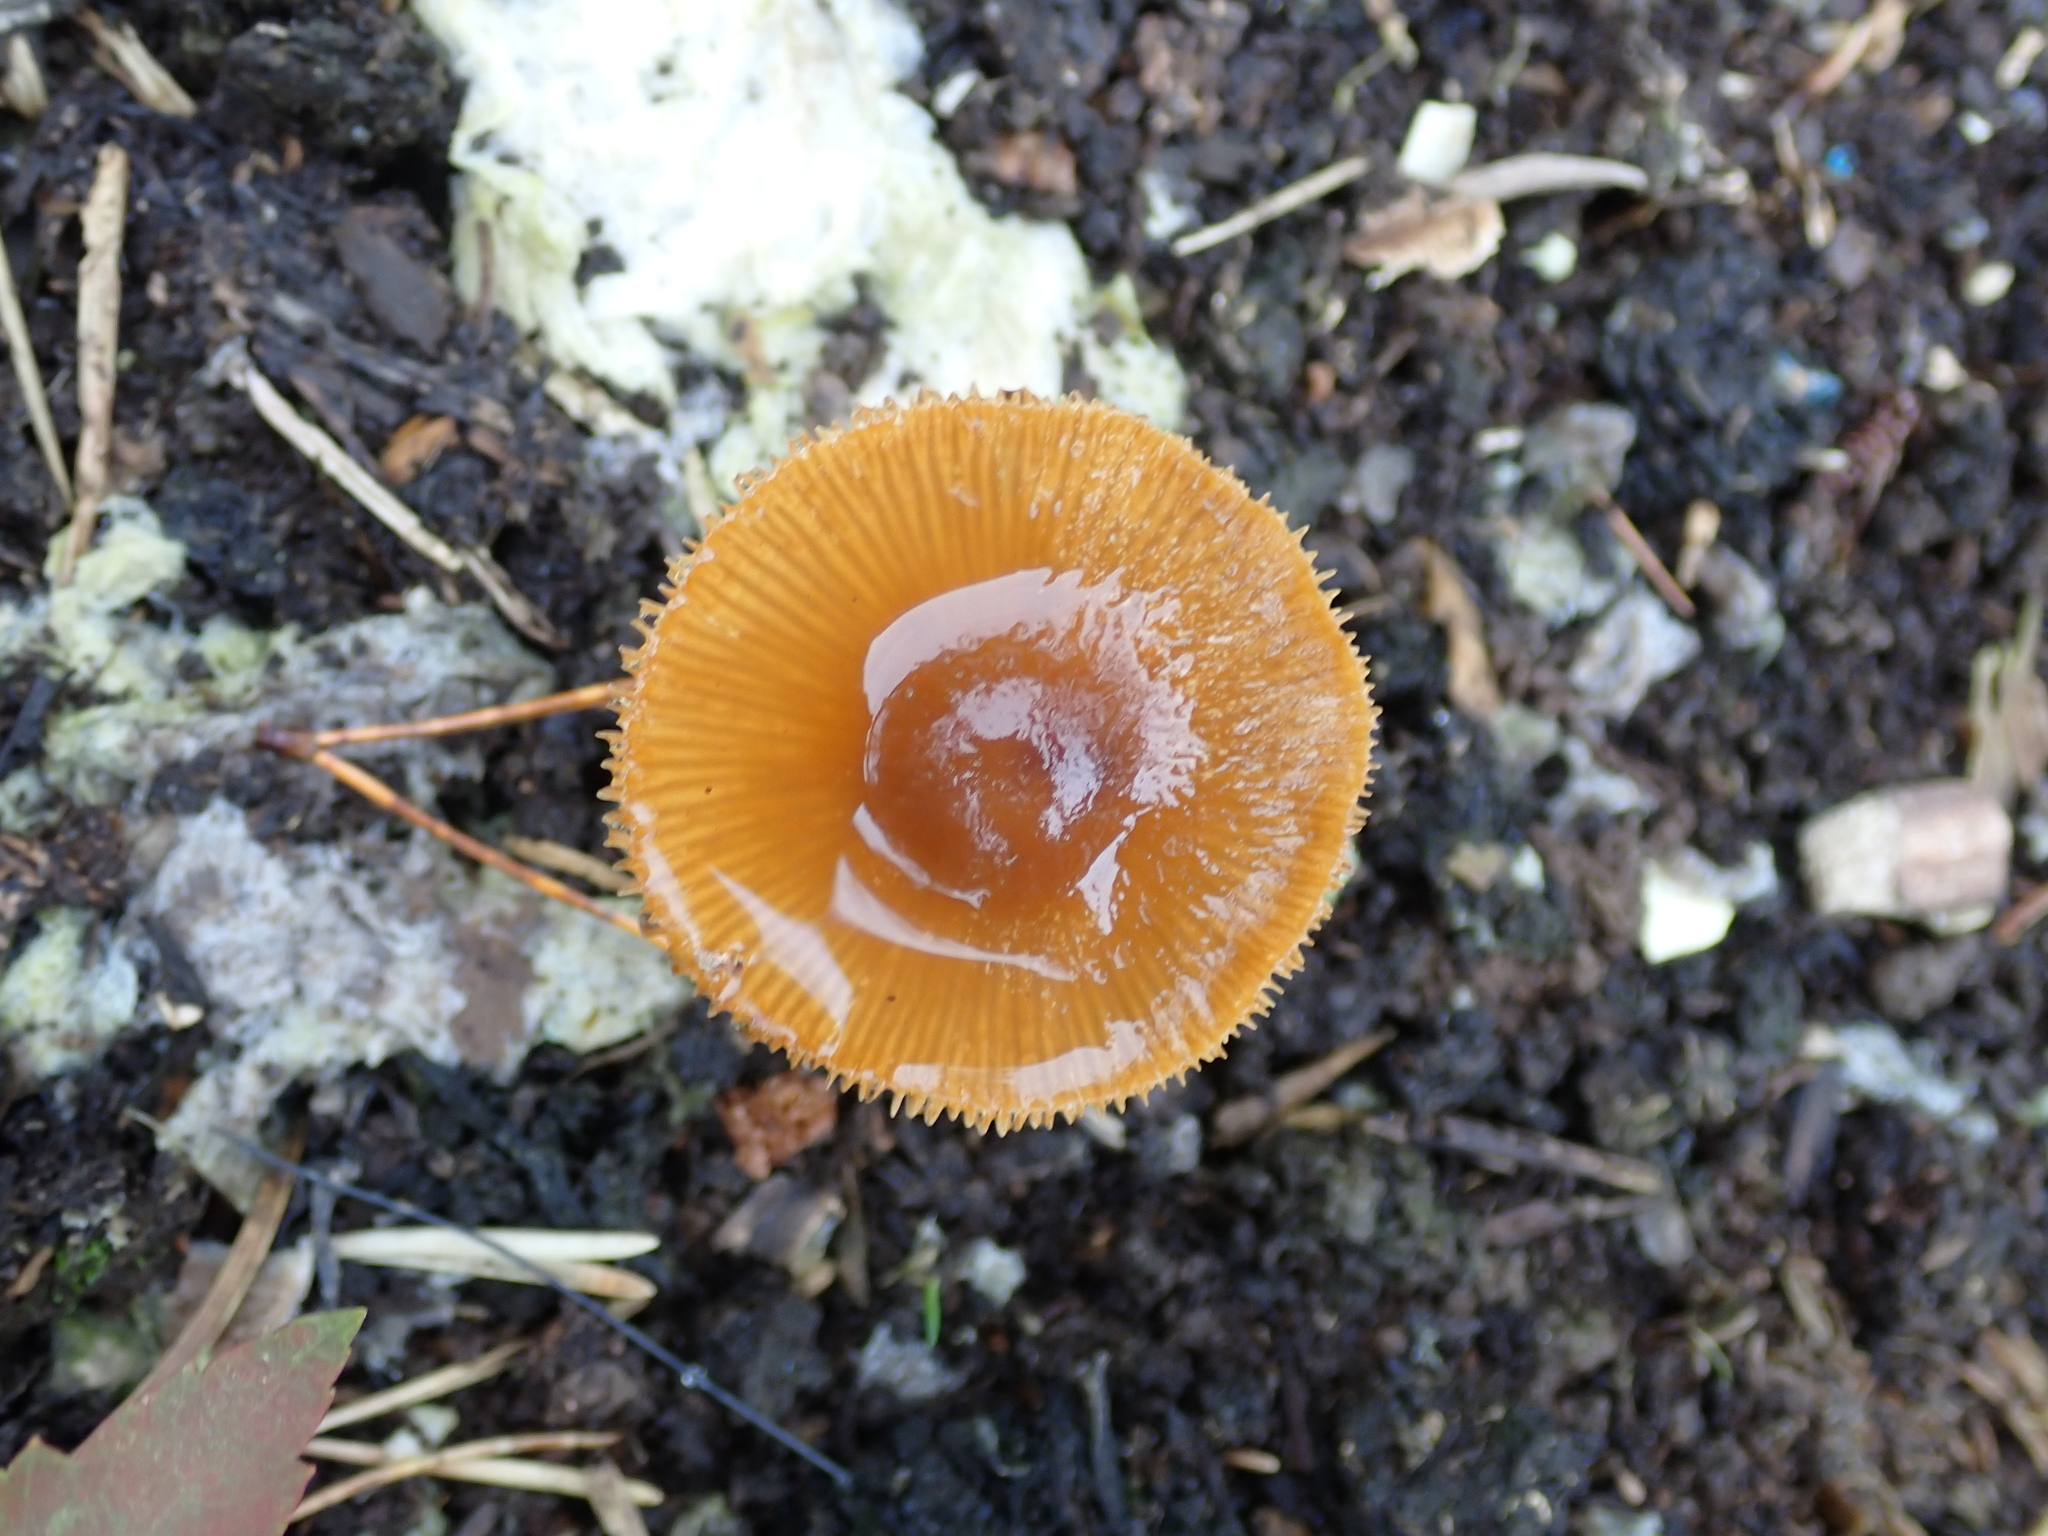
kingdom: Fungi
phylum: Basidiomycota
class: Agaricomycetes
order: Agaricales
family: Bolbitiaceae
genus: Conocybe
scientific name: Conocybe rugosa
